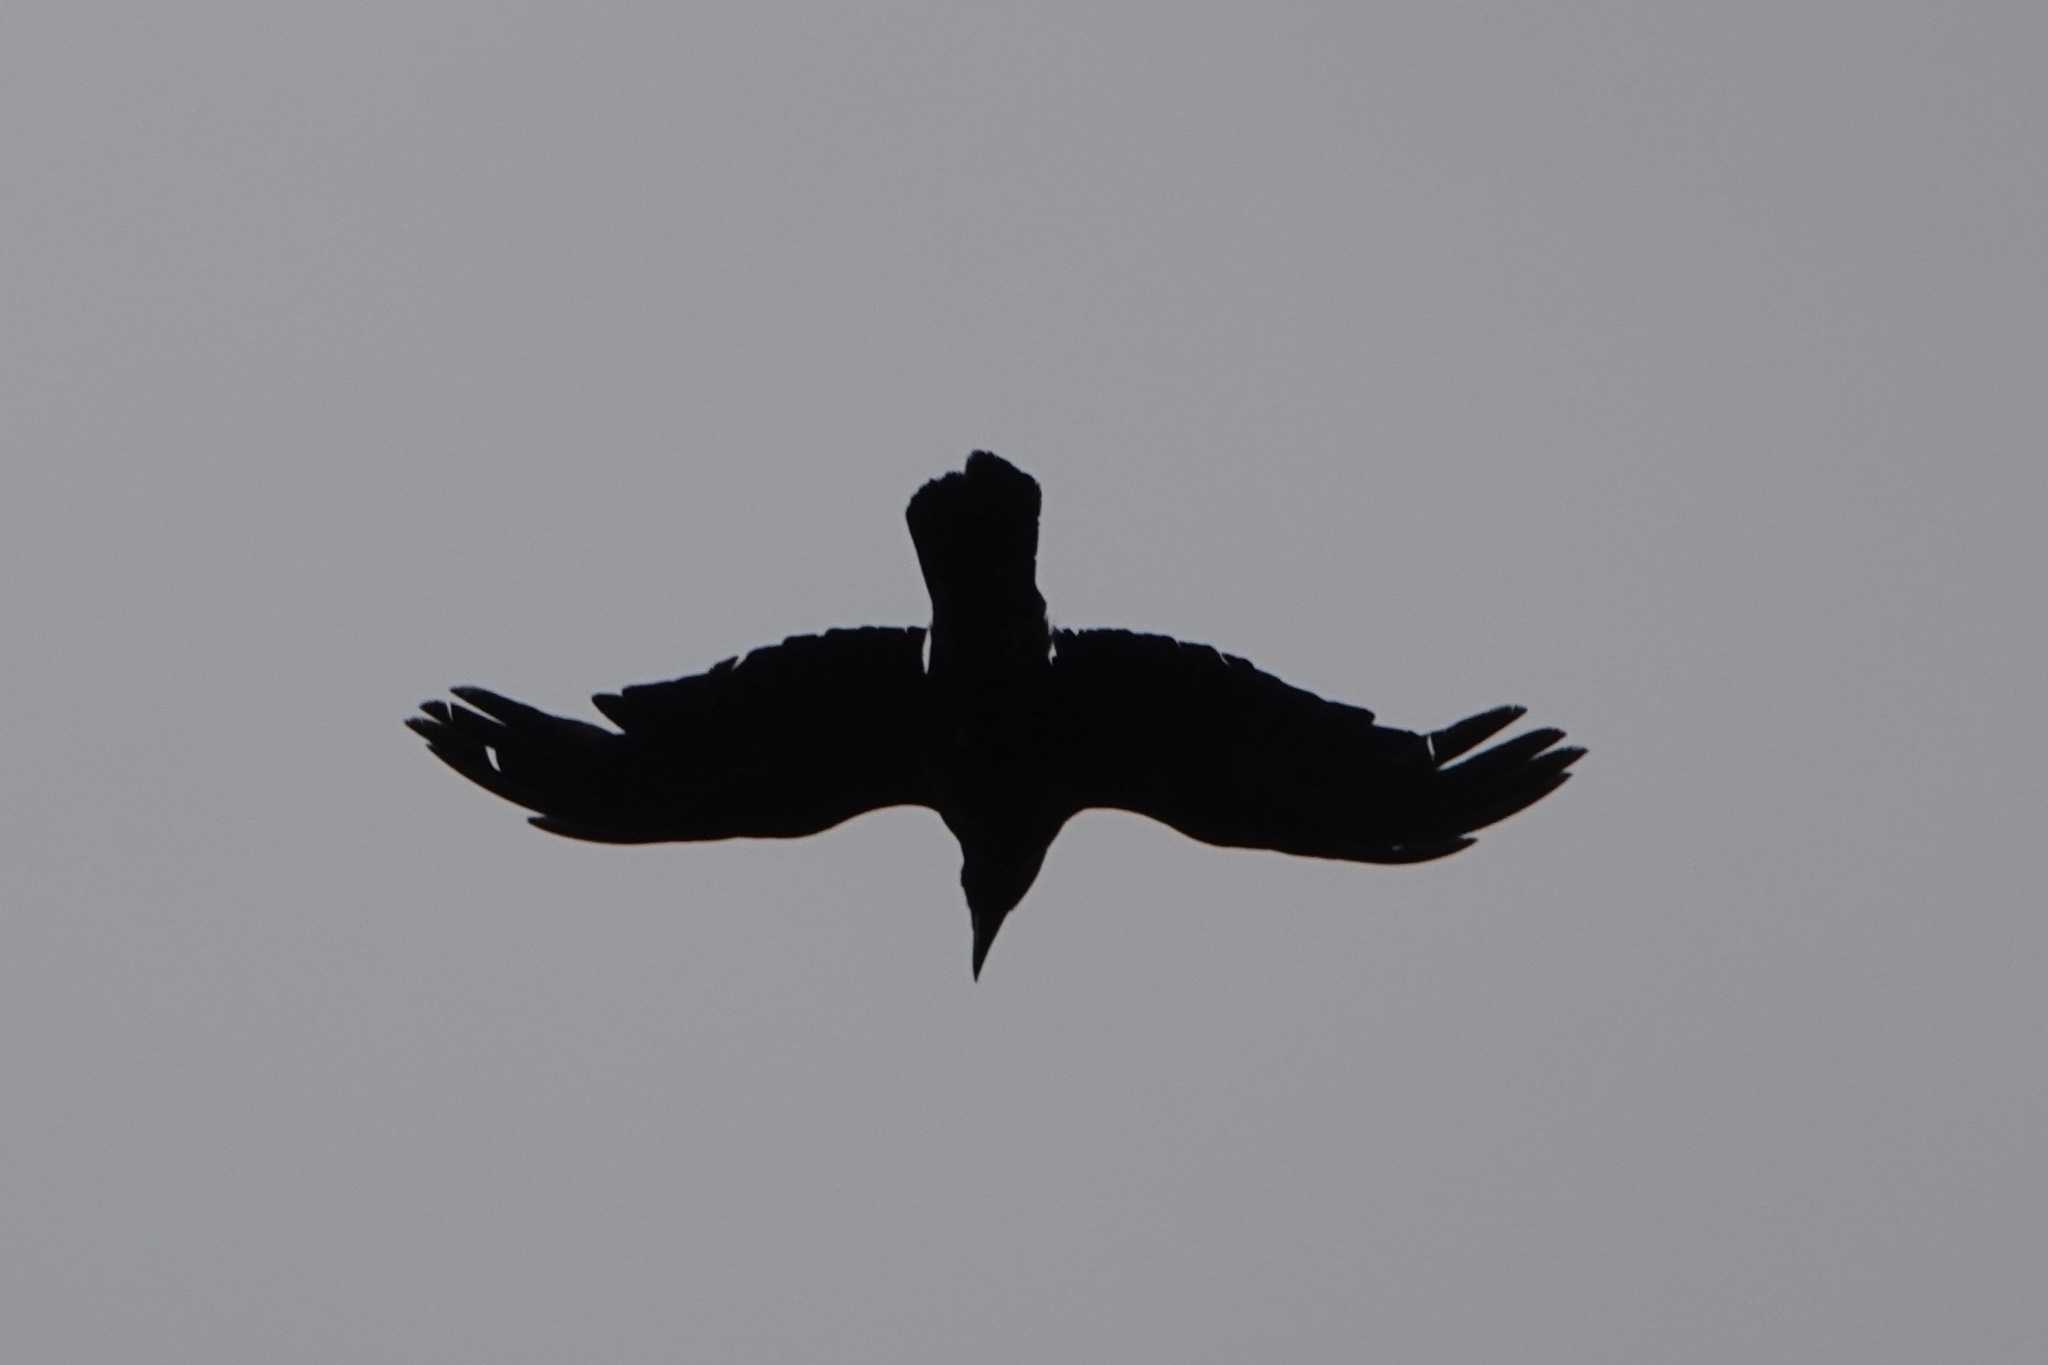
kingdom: Animalia
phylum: Chordata
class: Aves
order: Passeriformes
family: Corvidae
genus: Corvus
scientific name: Corvus corax
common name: Common raven
